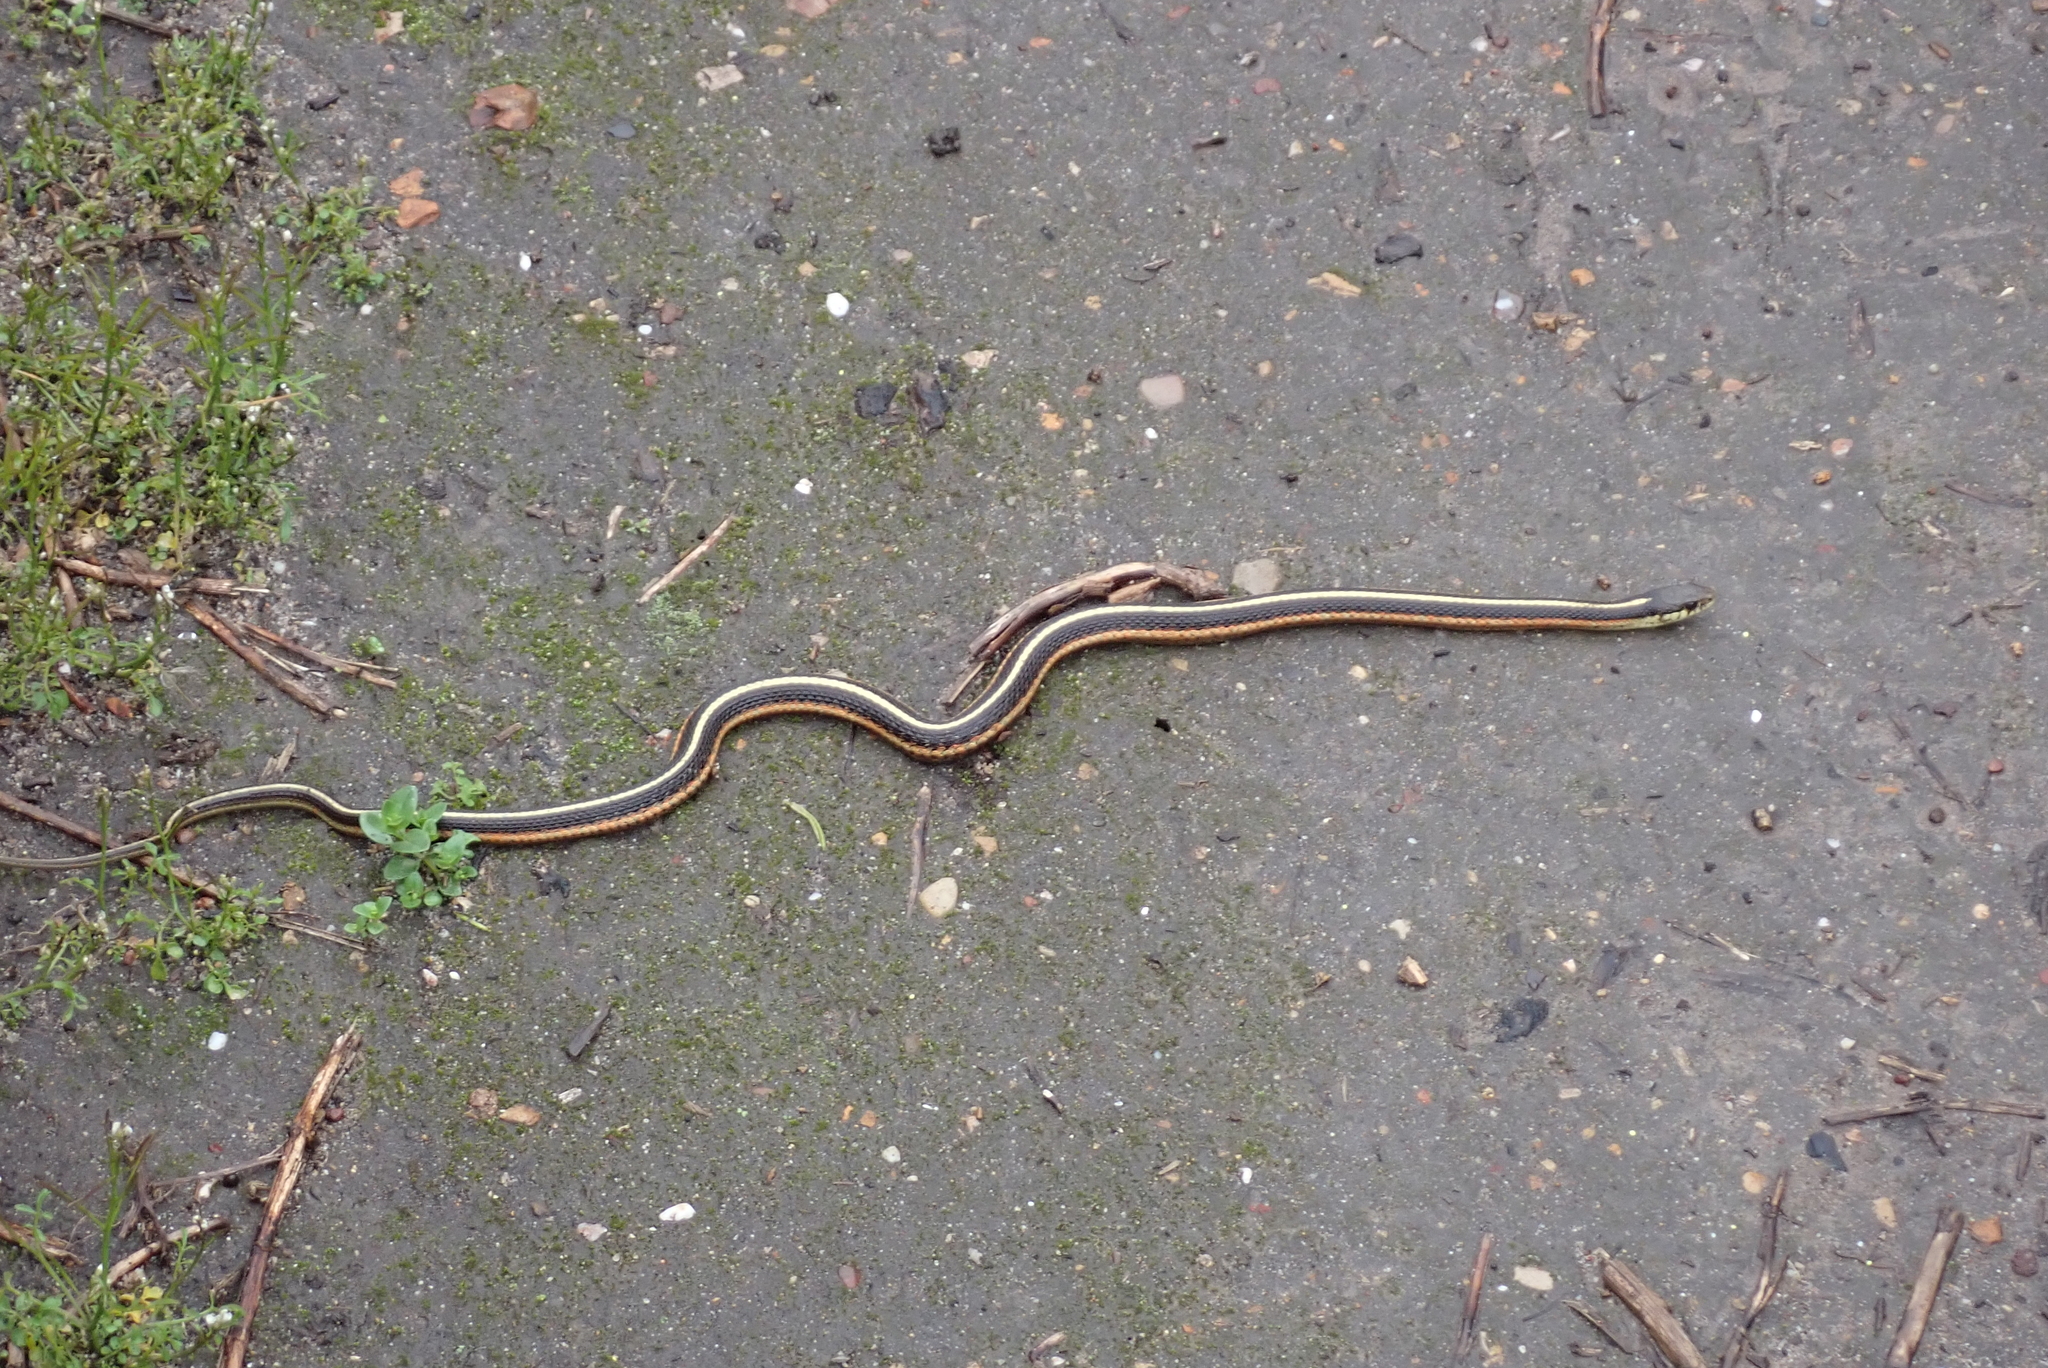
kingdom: Animalia
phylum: Chordata
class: Squamata
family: Colubridae
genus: Thamnophis
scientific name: Thamnophis elegans
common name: Western terrestrial garter snake
